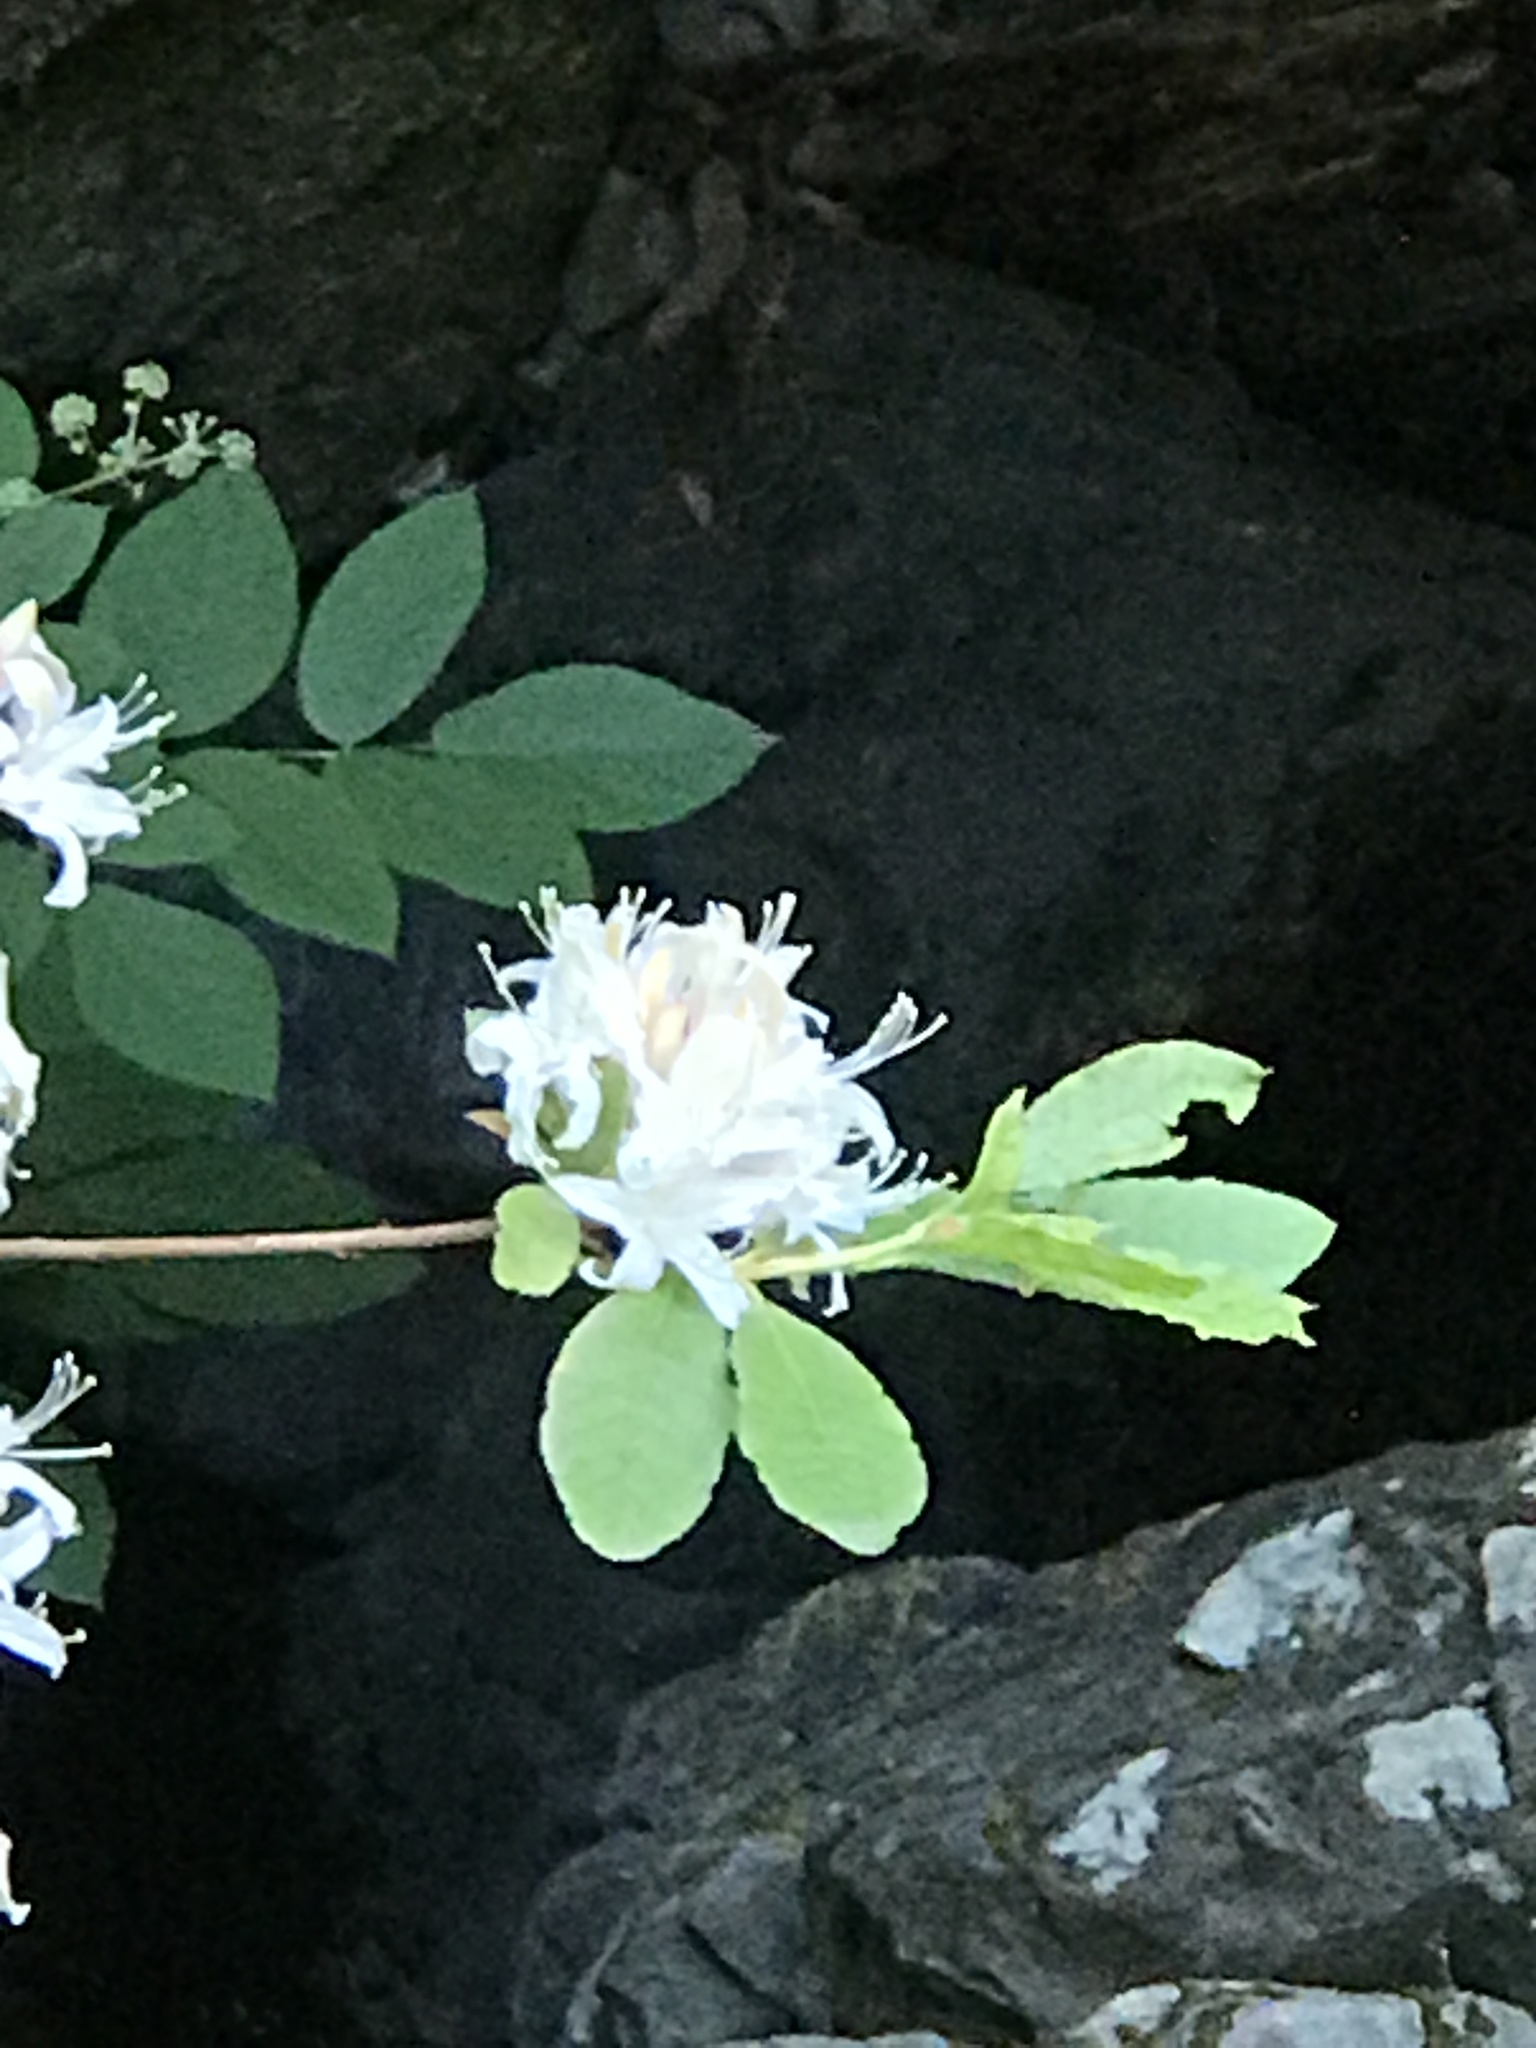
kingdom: Plantae
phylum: Tracheophyta
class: Magnoliopsida
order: Ericales
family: Ericaceae
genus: Rhododendron
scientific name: Rhododendron occidentale
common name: Western azalea
